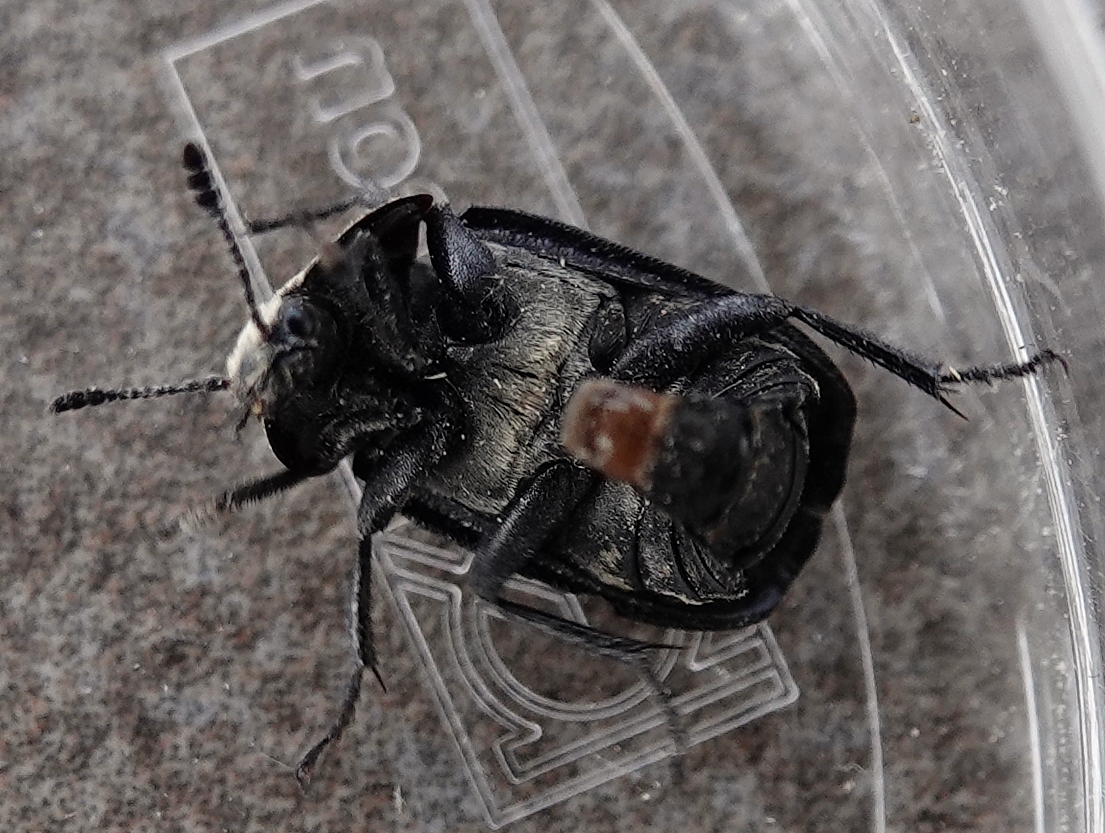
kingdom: Animalia
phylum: Arthropoda
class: Insecta
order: Coleoptera
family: Staphylinidae
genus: Thanatophilus
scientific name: Thanatophilus lapponicus
